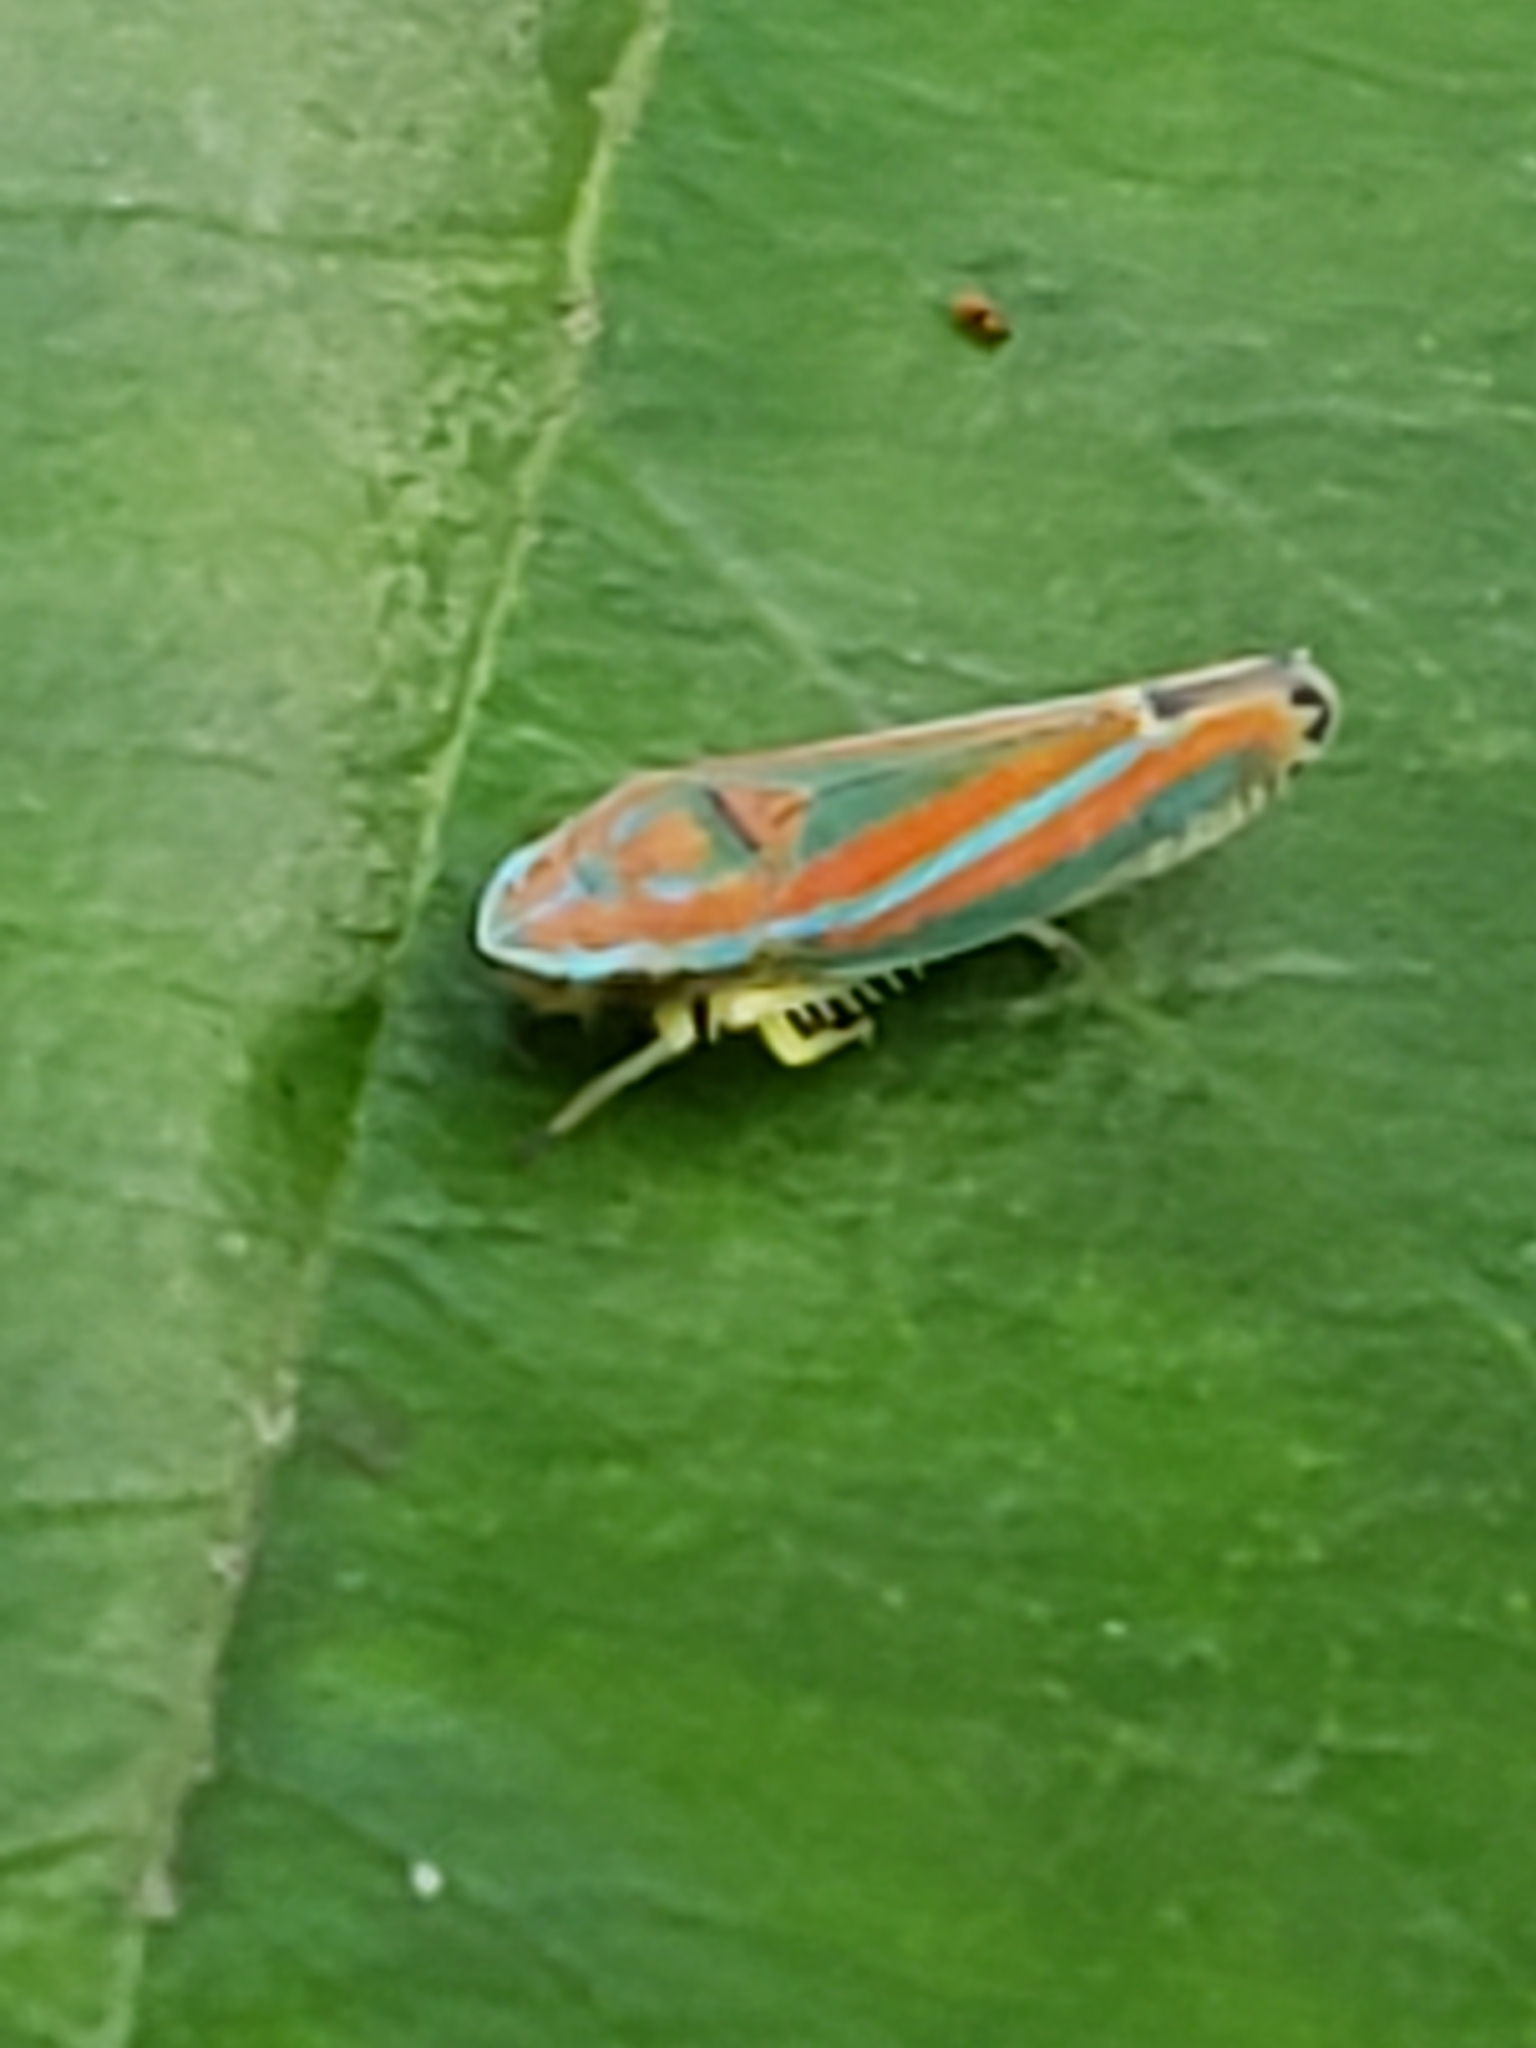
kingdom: Animalia
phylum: Arthropoda
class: Insecta
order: Hemiptera
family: Cicadellidae
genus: Graphocephala
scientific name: Graphocephala versuta
